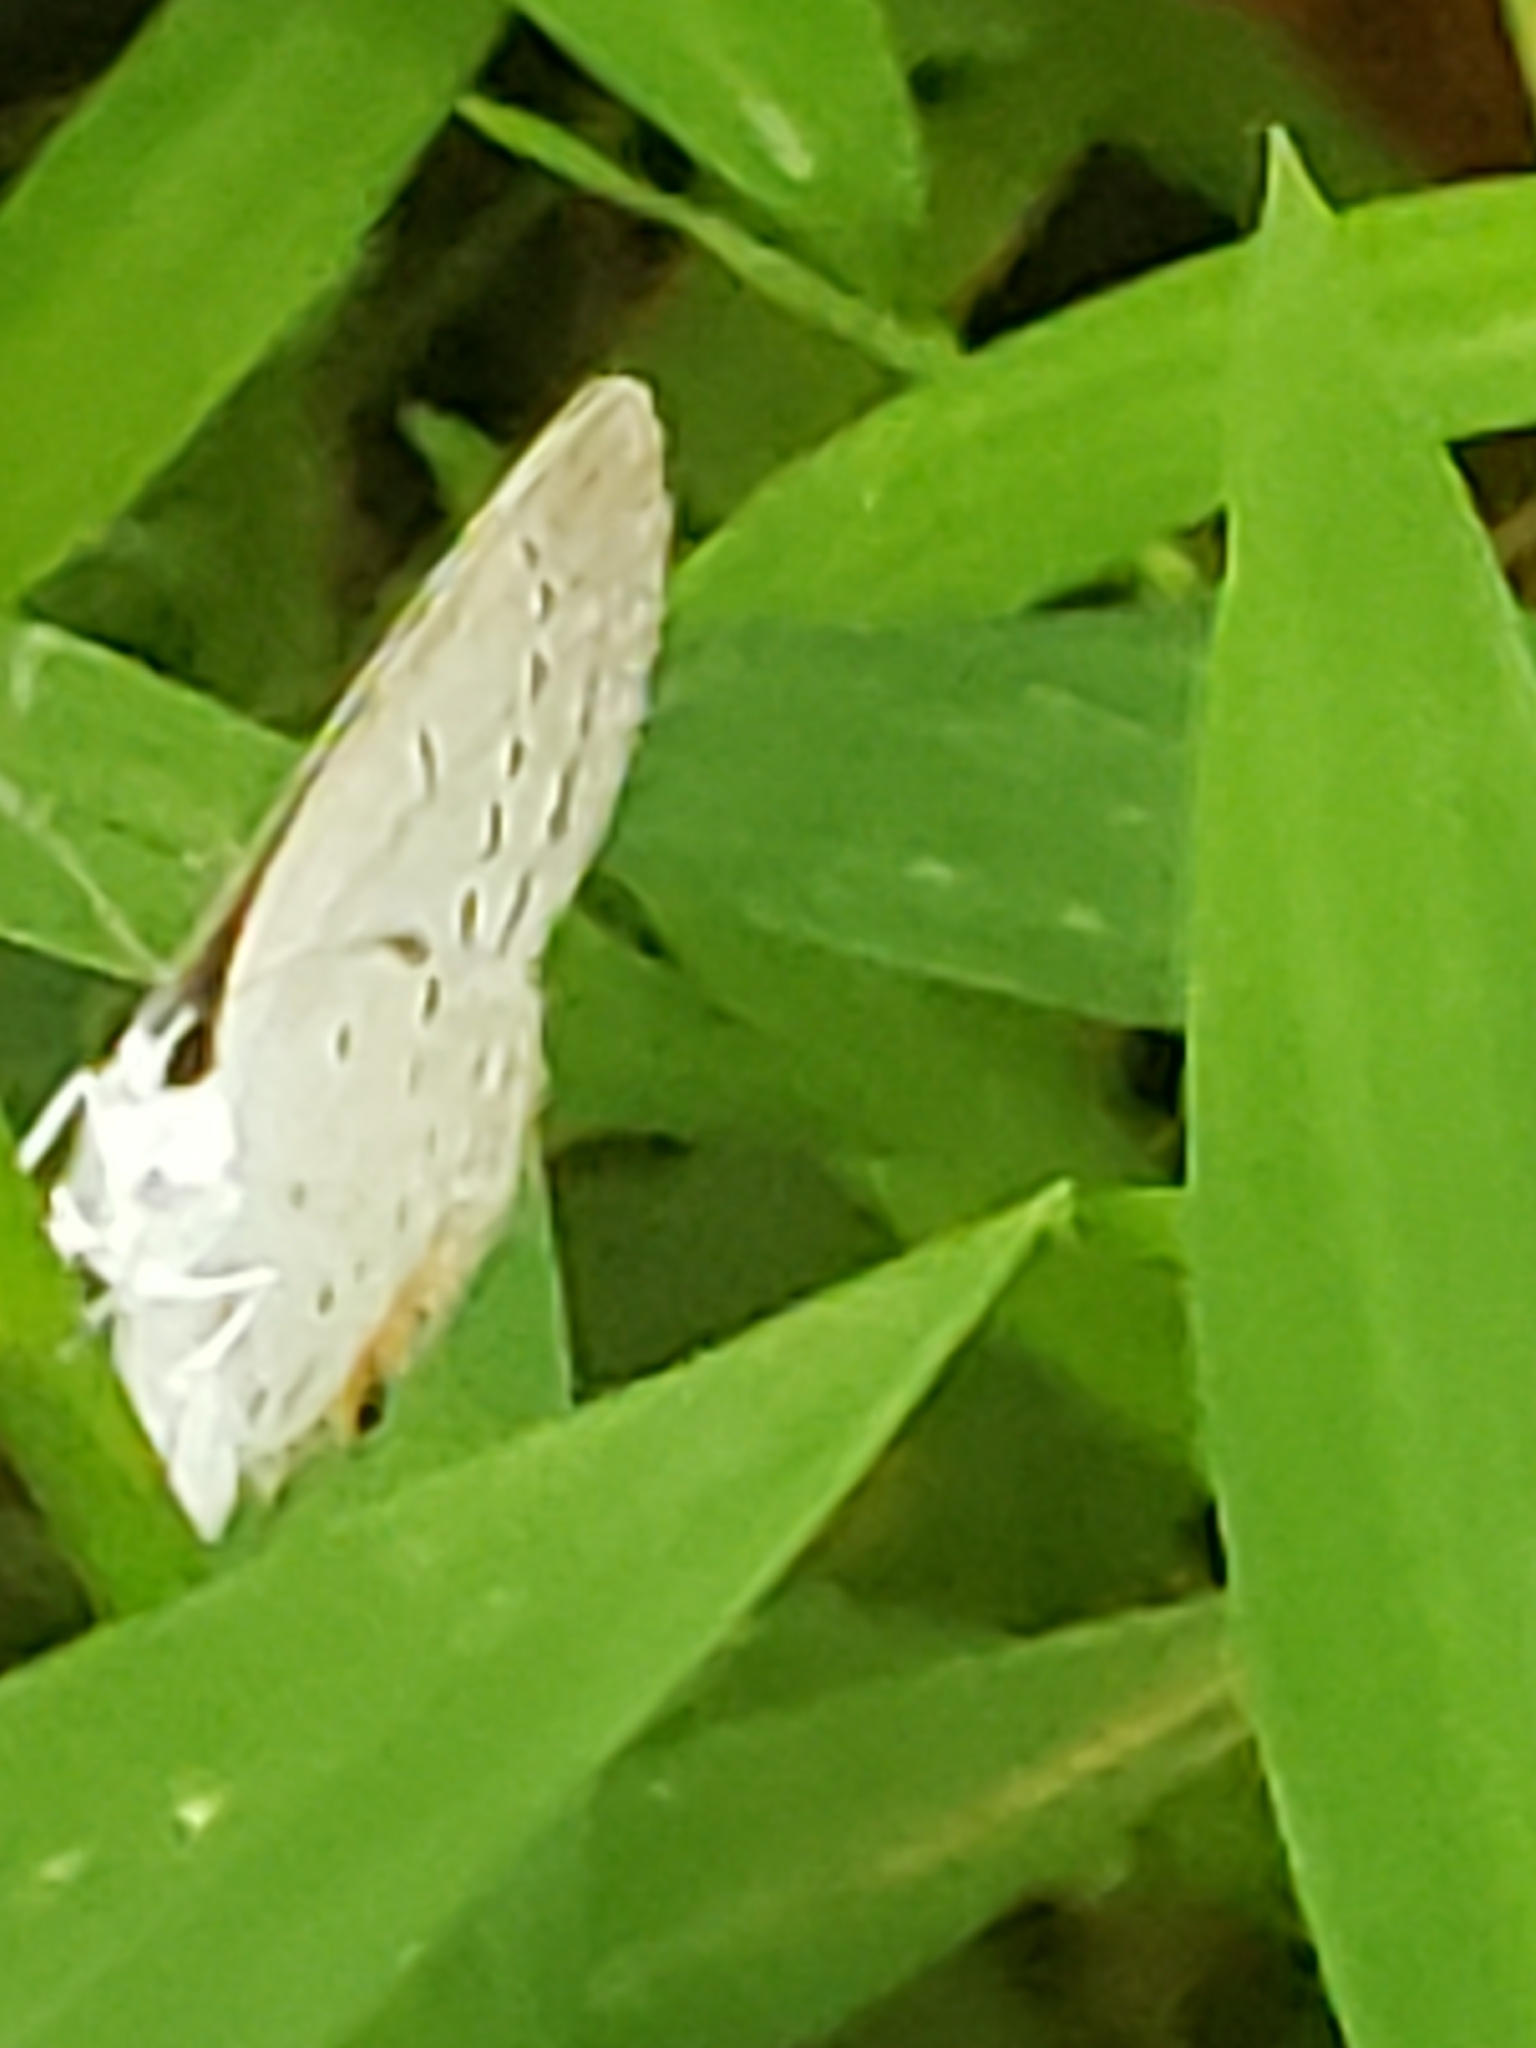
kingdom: Animalia
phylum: Arthropoda
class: Insecta
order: Lepidoptera
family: Lycaenidae
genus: Elkalyce
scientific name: Elkalyce comyntas
